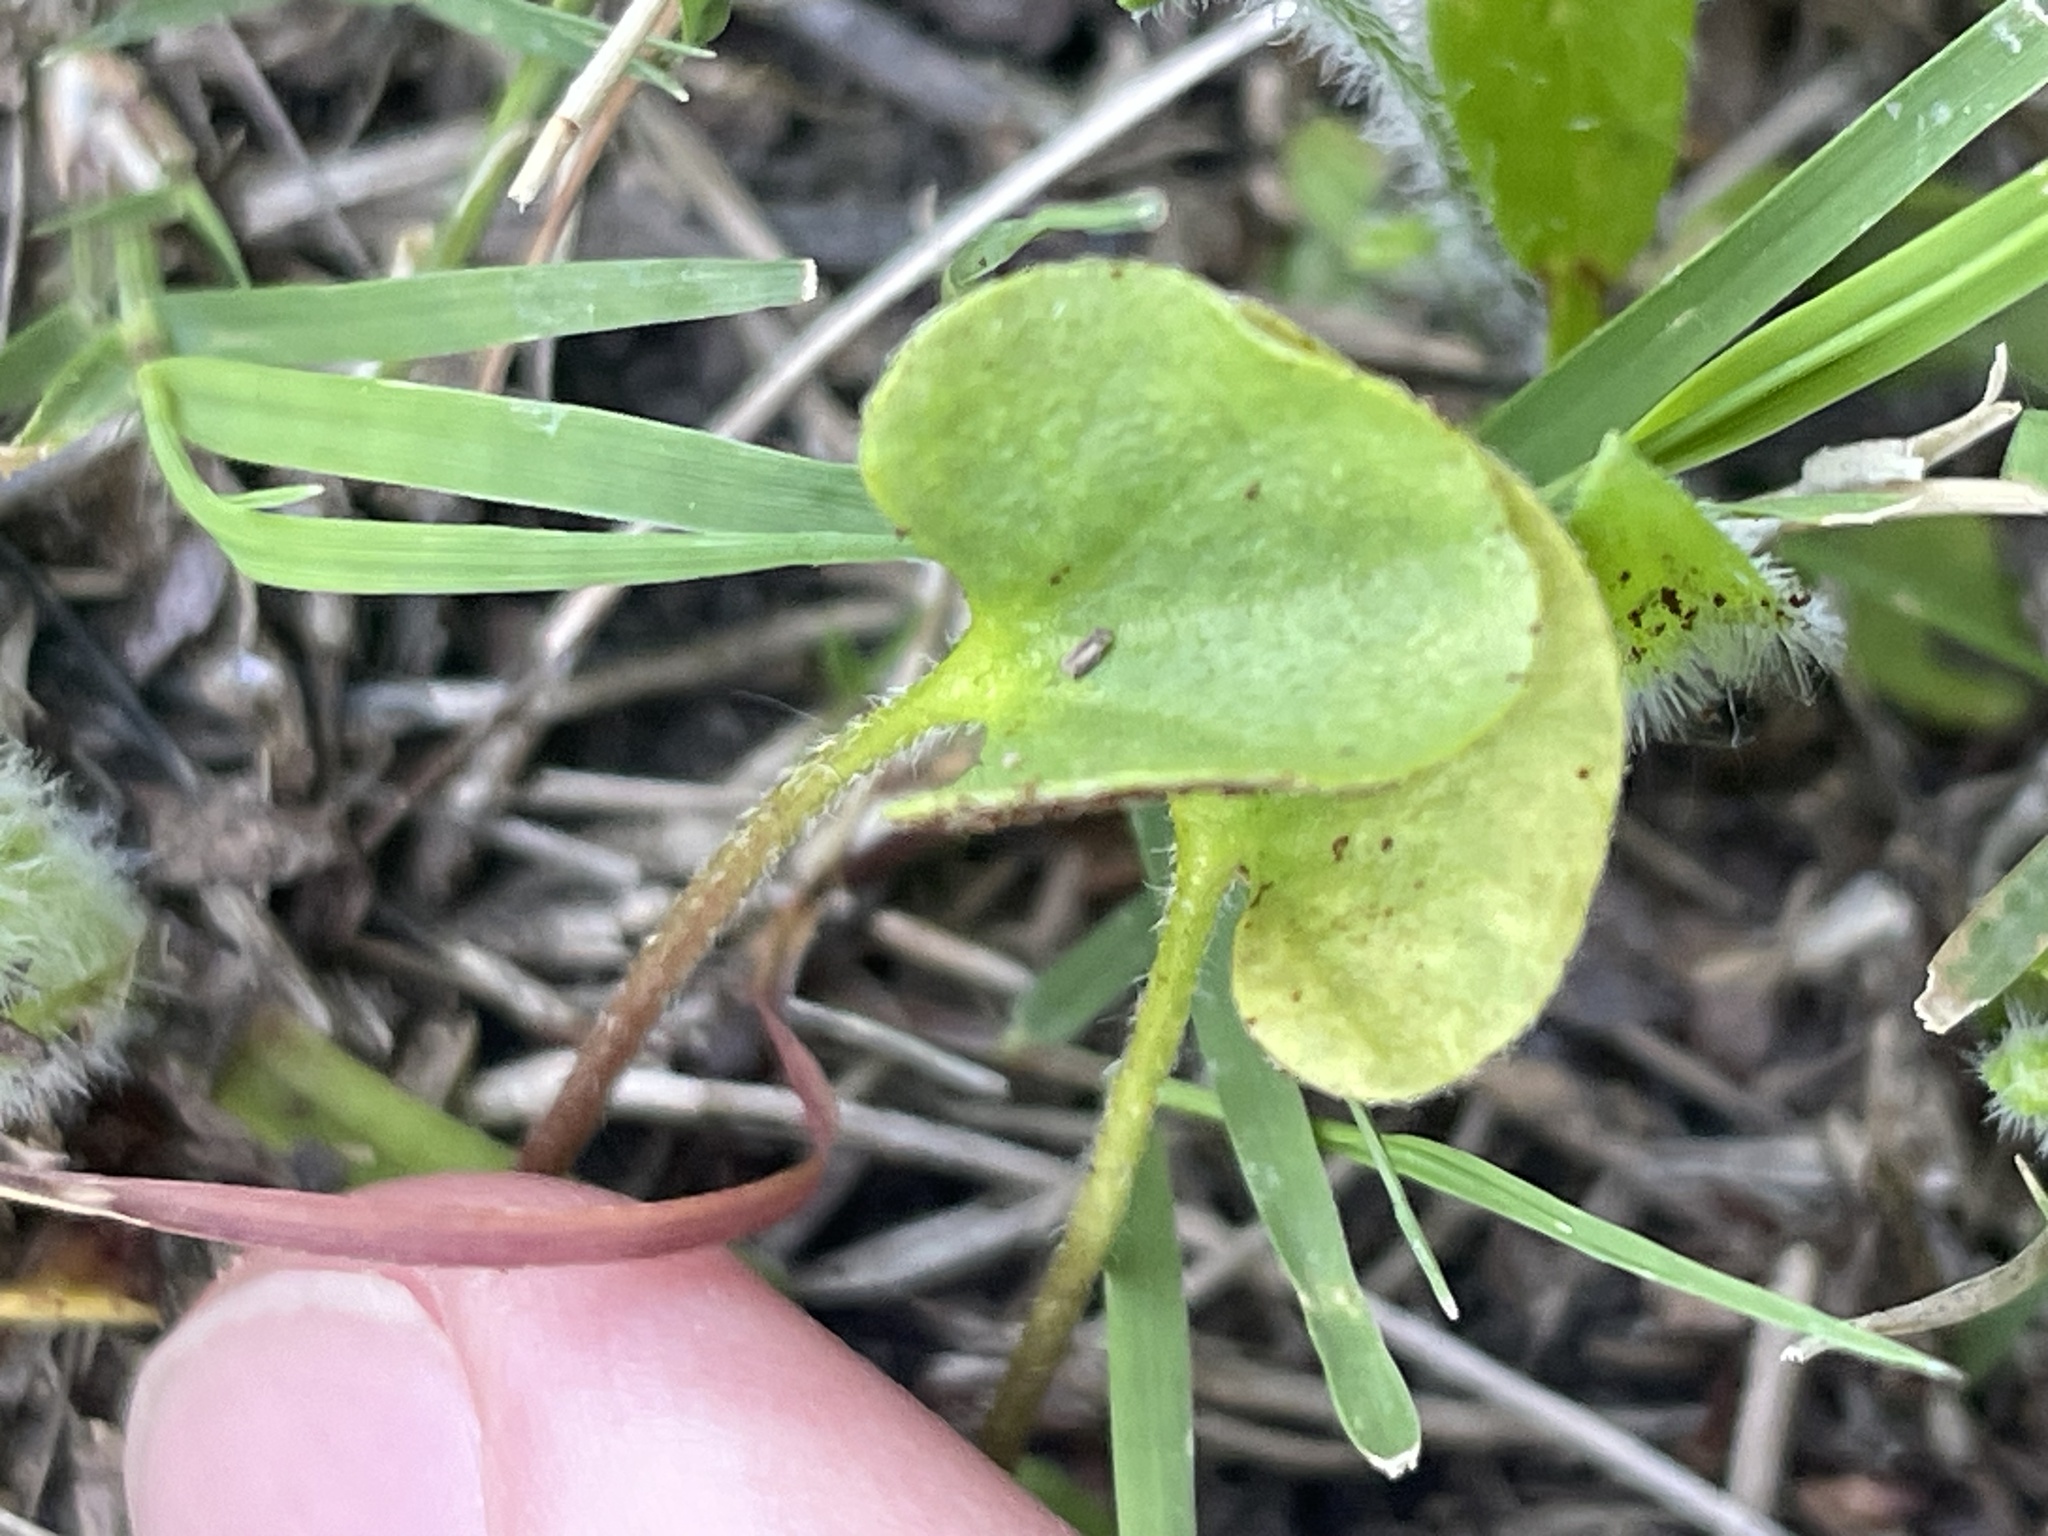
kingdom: Fungi
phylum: Basidiomycota
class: Pucciniomycetes
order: Pucciniales
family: Pucciniaceae
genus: Puccinia
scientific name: Puccinia dichondrae
